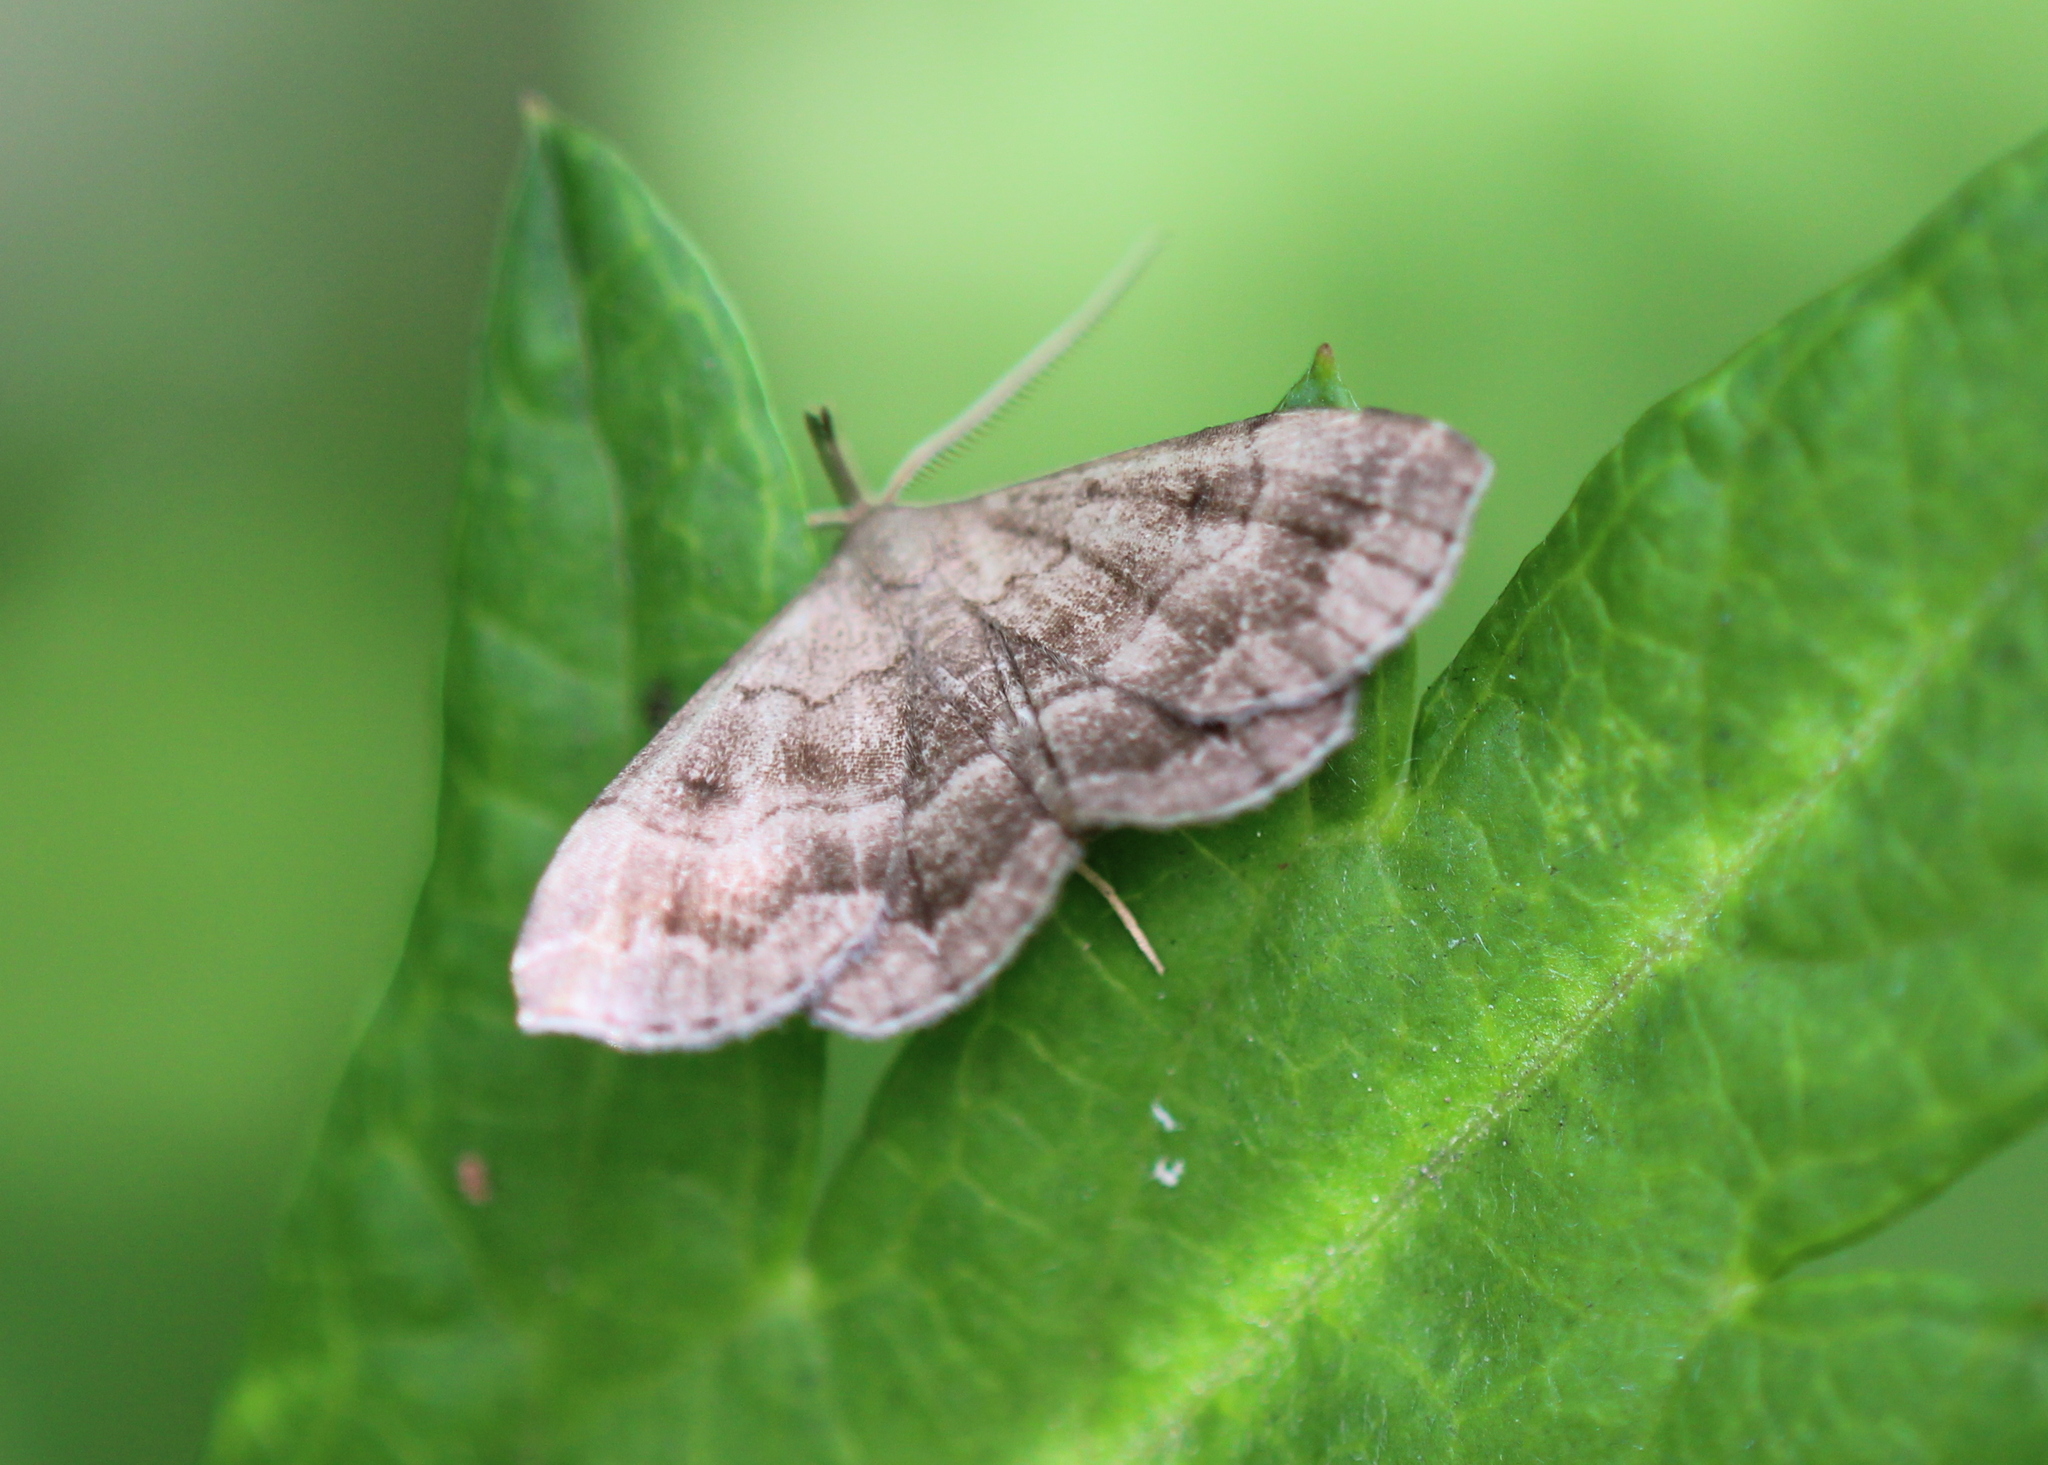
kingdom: Animalia
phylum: Arthropoda
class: Insecta
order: Lepidoptera
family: Erebidae
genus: Phalaenostola
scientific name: Phalaenostola larentioides
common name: Black-banded owlet
